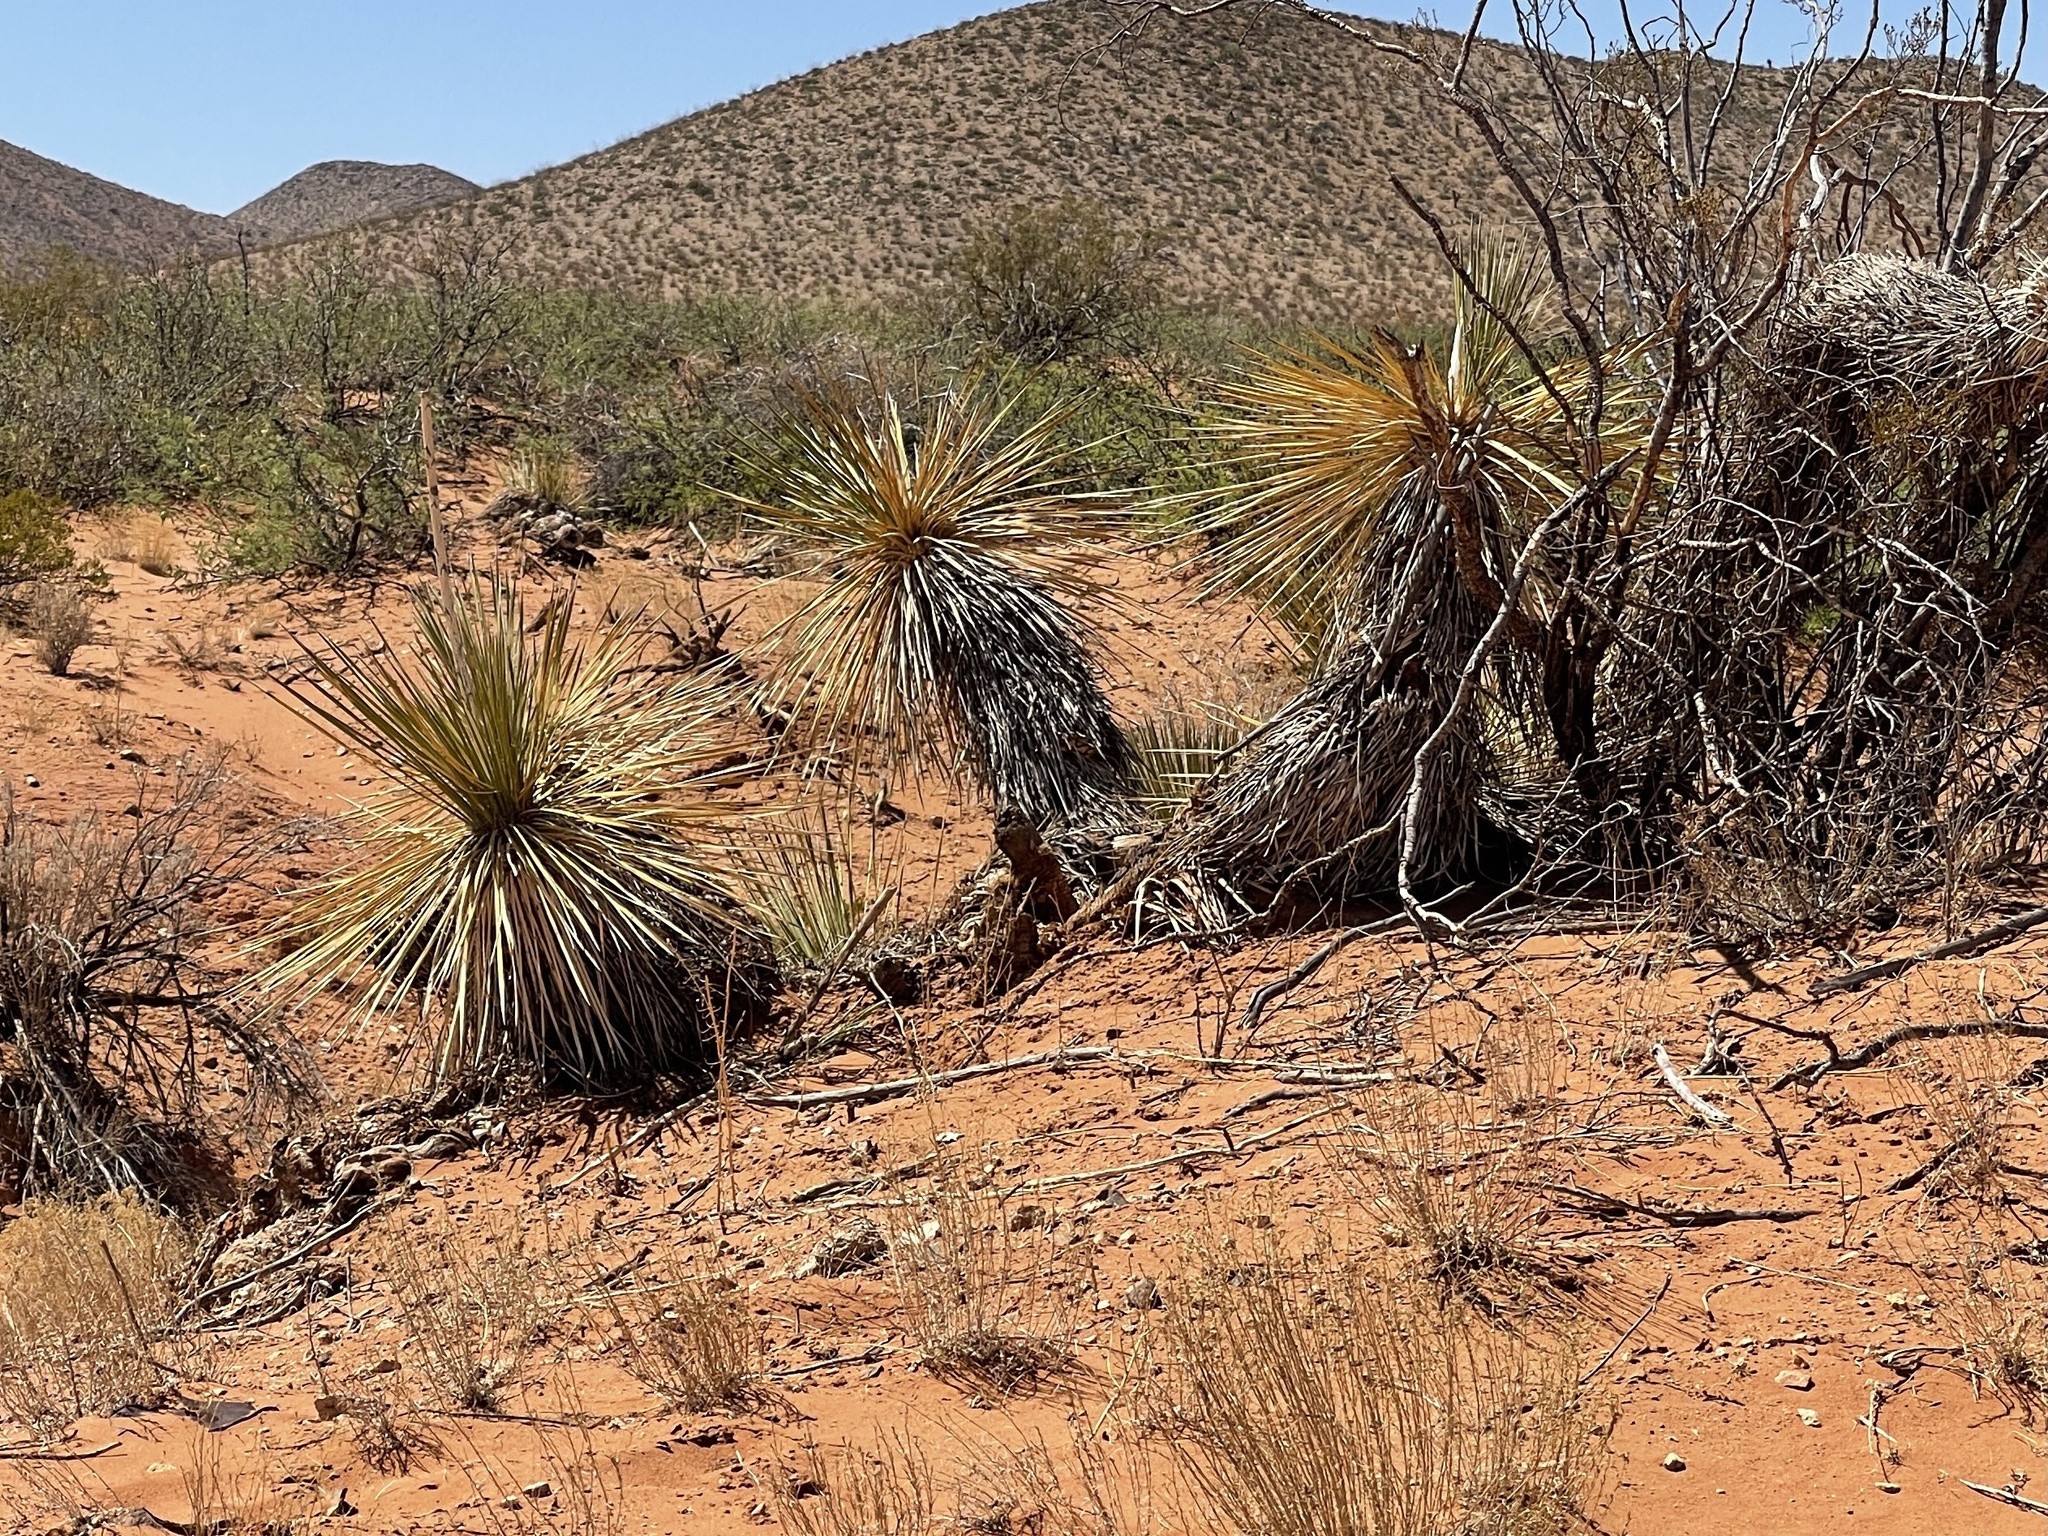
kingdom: Plantae
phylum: Tracheophyta
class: Liliopsida
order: Asparagales
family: Asparagaceae
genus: Yucca
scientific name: Yucca elata
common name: Palmella
